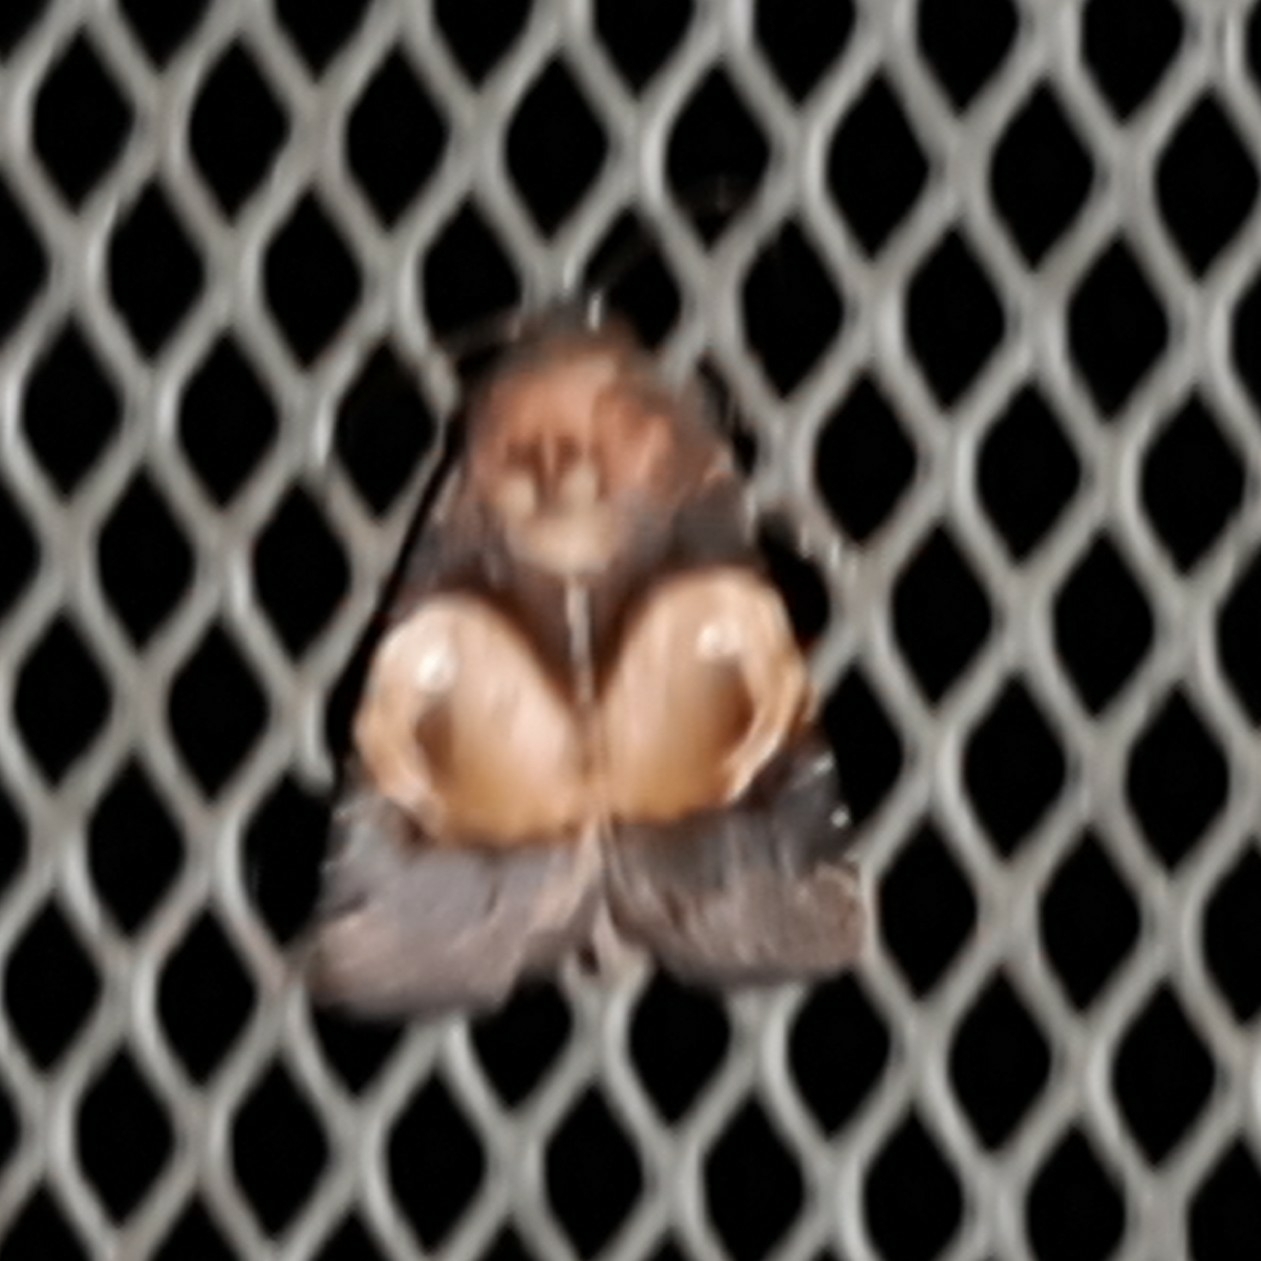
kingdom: Animalia
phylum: Arthropoda
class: Insecta
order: Lepidoptera
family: Noctuidae
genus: Hampsonodes
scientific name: Hampsonodes orbica
